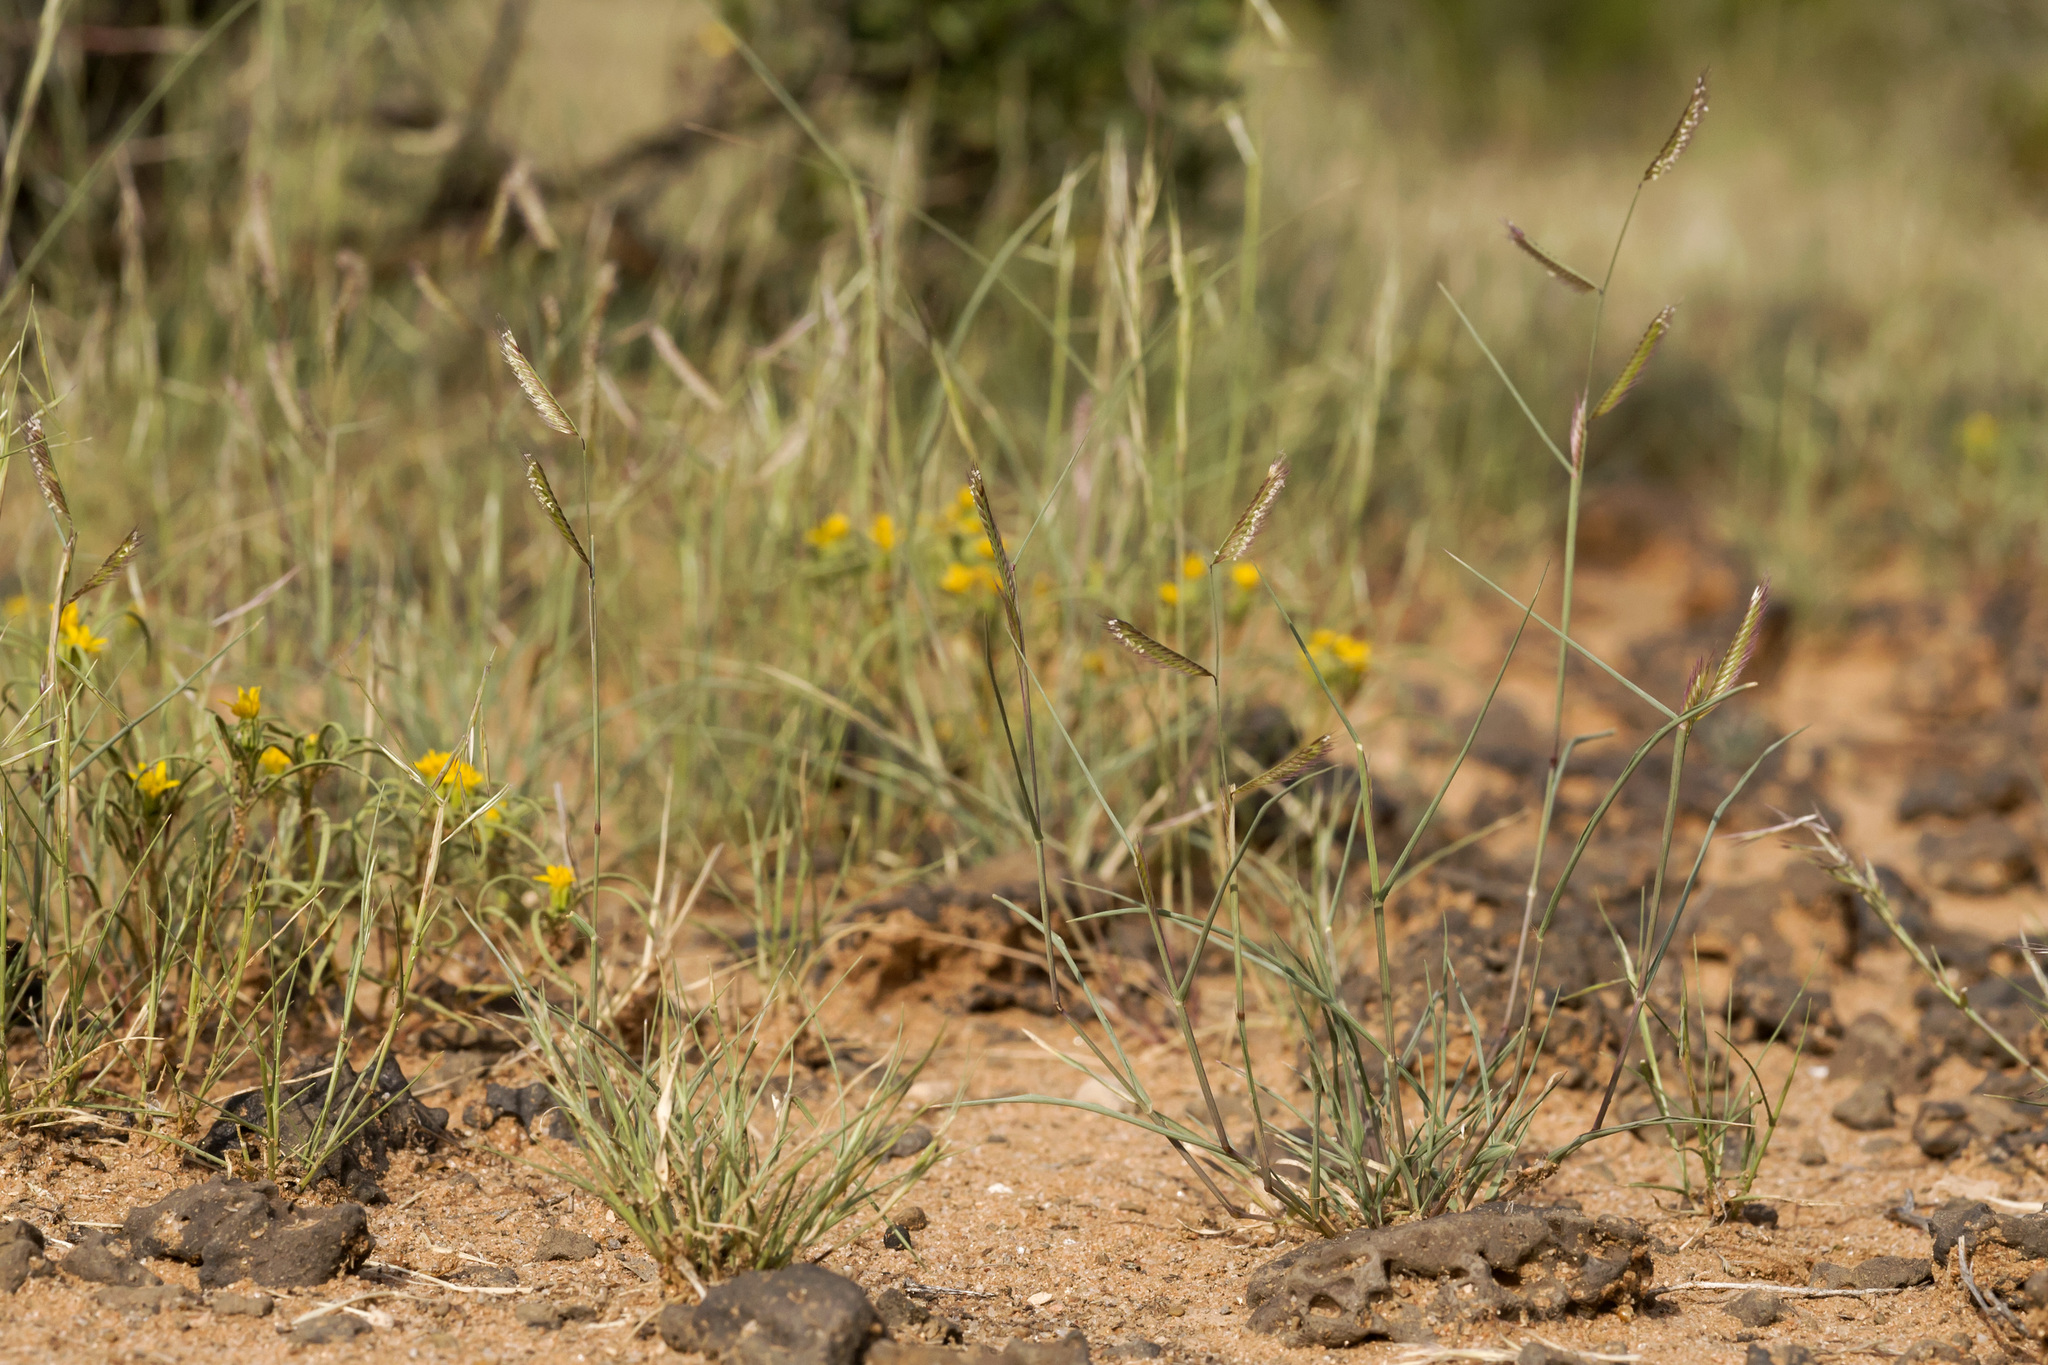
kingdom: Plantae
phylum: Tracheophyta
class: Liliopsida
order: Poales
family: Poaceae
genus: Bouteloua
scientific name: Bouteloua barbata
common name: Six-weeks grama
